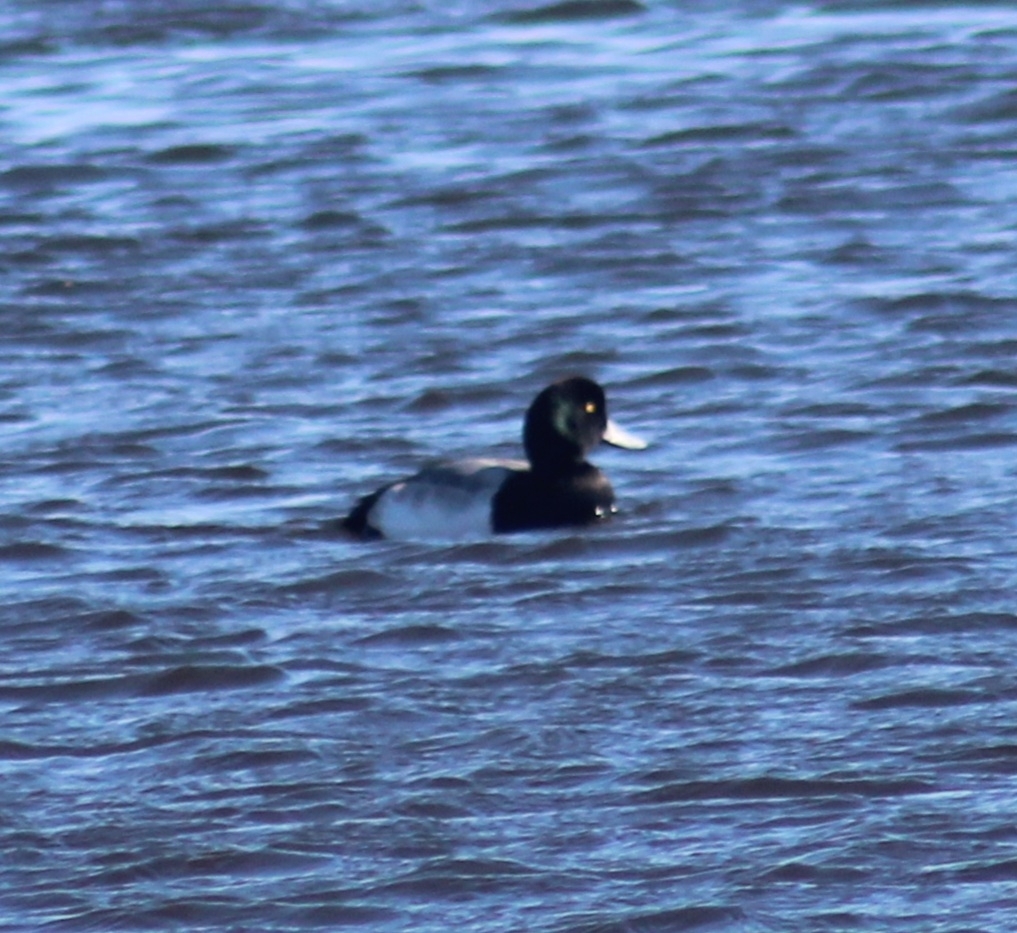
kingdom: Animalia
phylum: Chordata
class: Aves
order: Anseriformes
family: Anatidae
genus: Aythya
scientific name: Aythya marila
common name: Greater scaup
